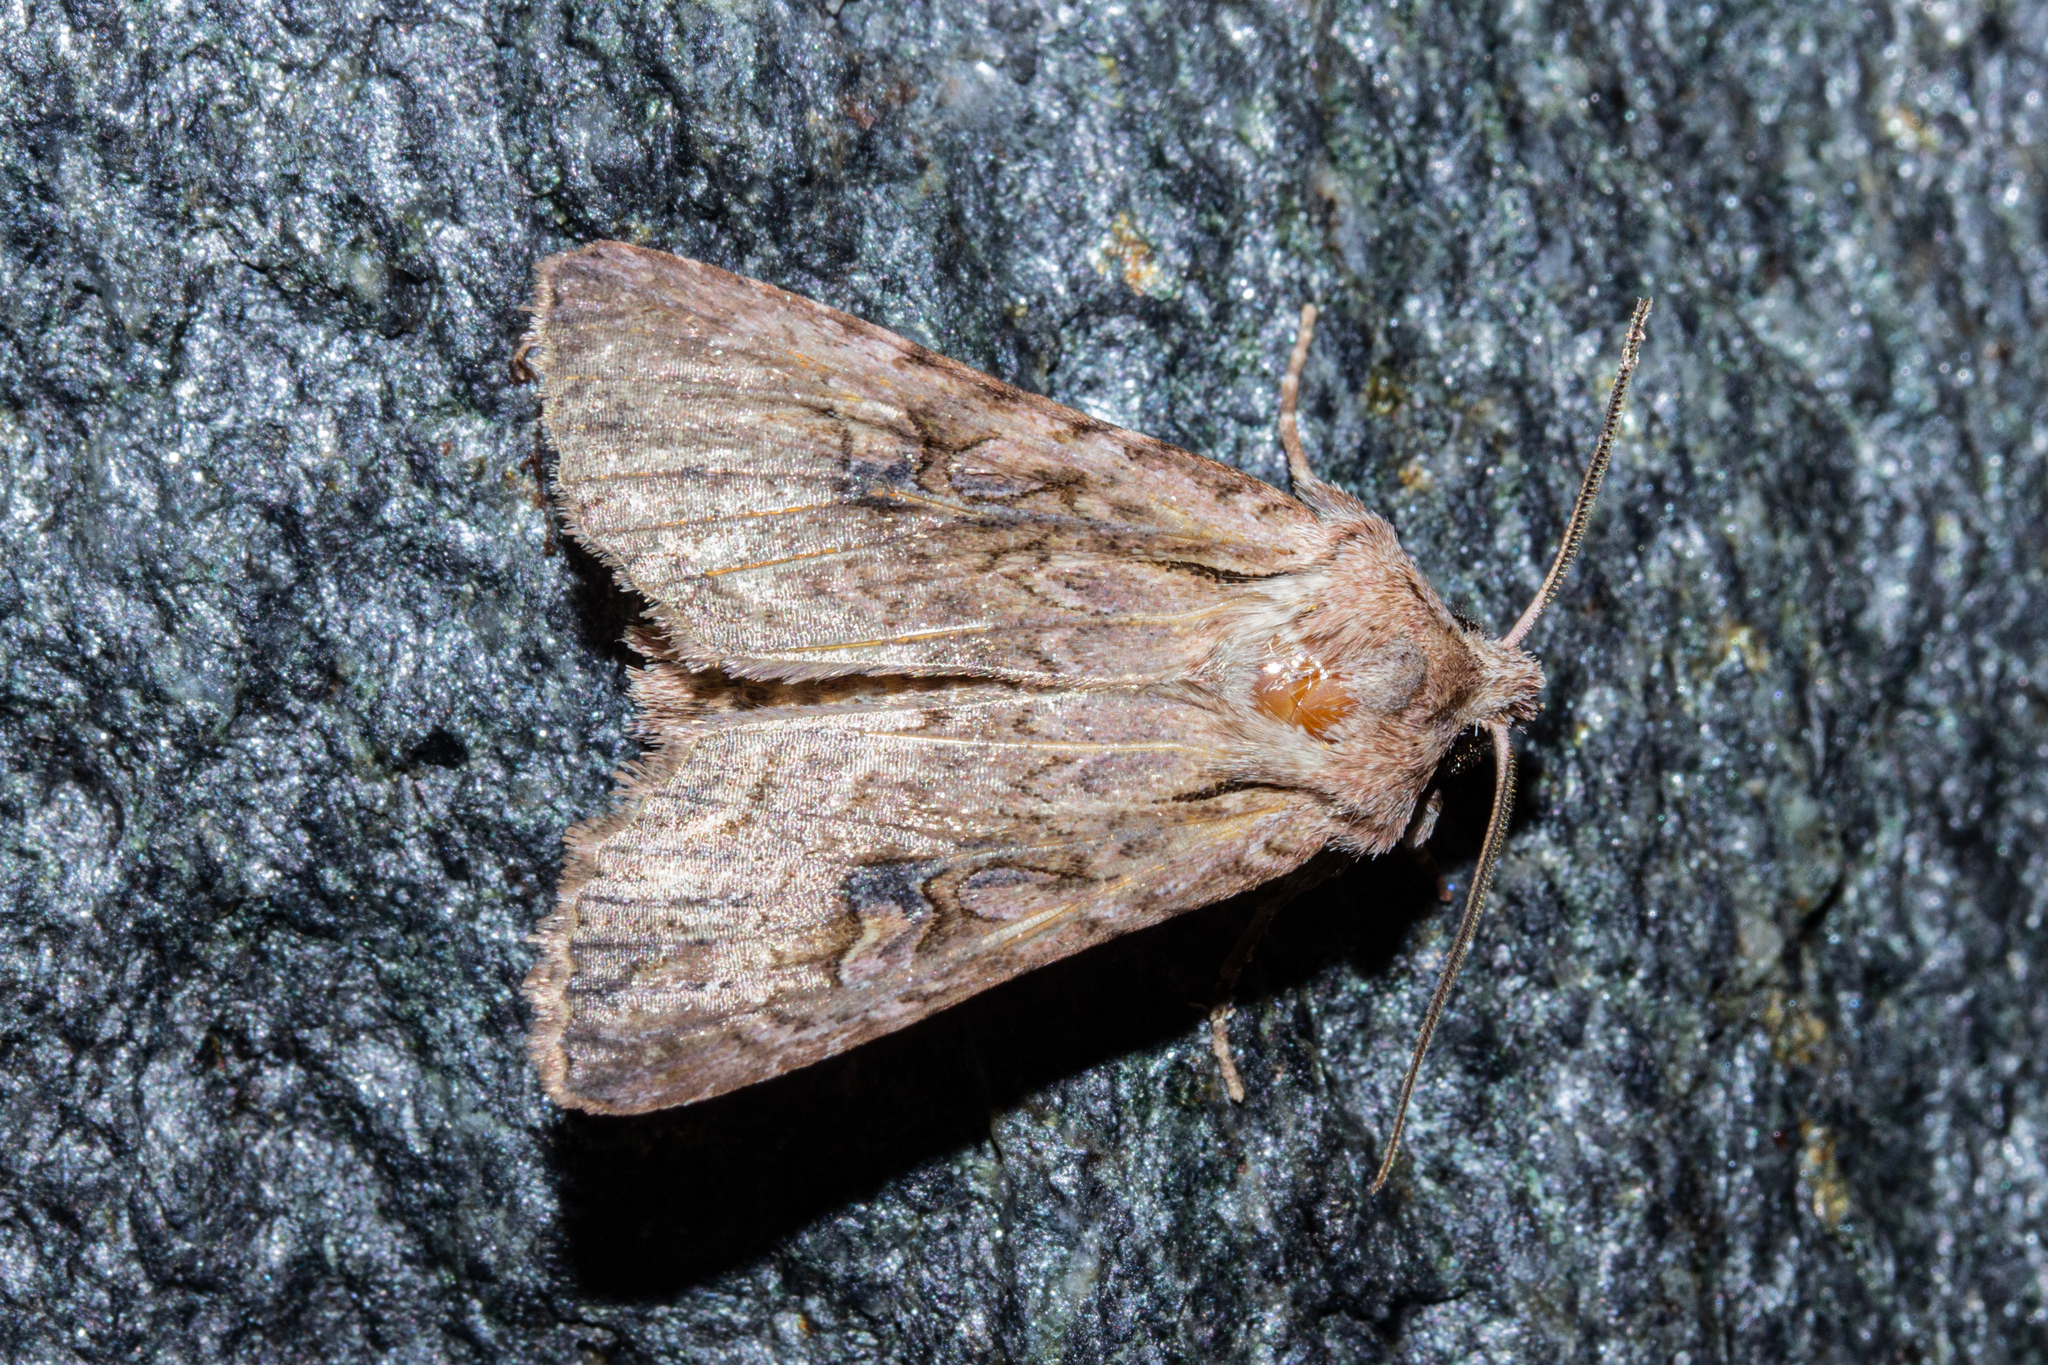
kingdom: Animalia
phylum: Arthropoda
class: Insecta
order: Lepidoptera
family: Noctuidae
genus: Ichneutica
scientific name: Ichneutica lindsayorum
